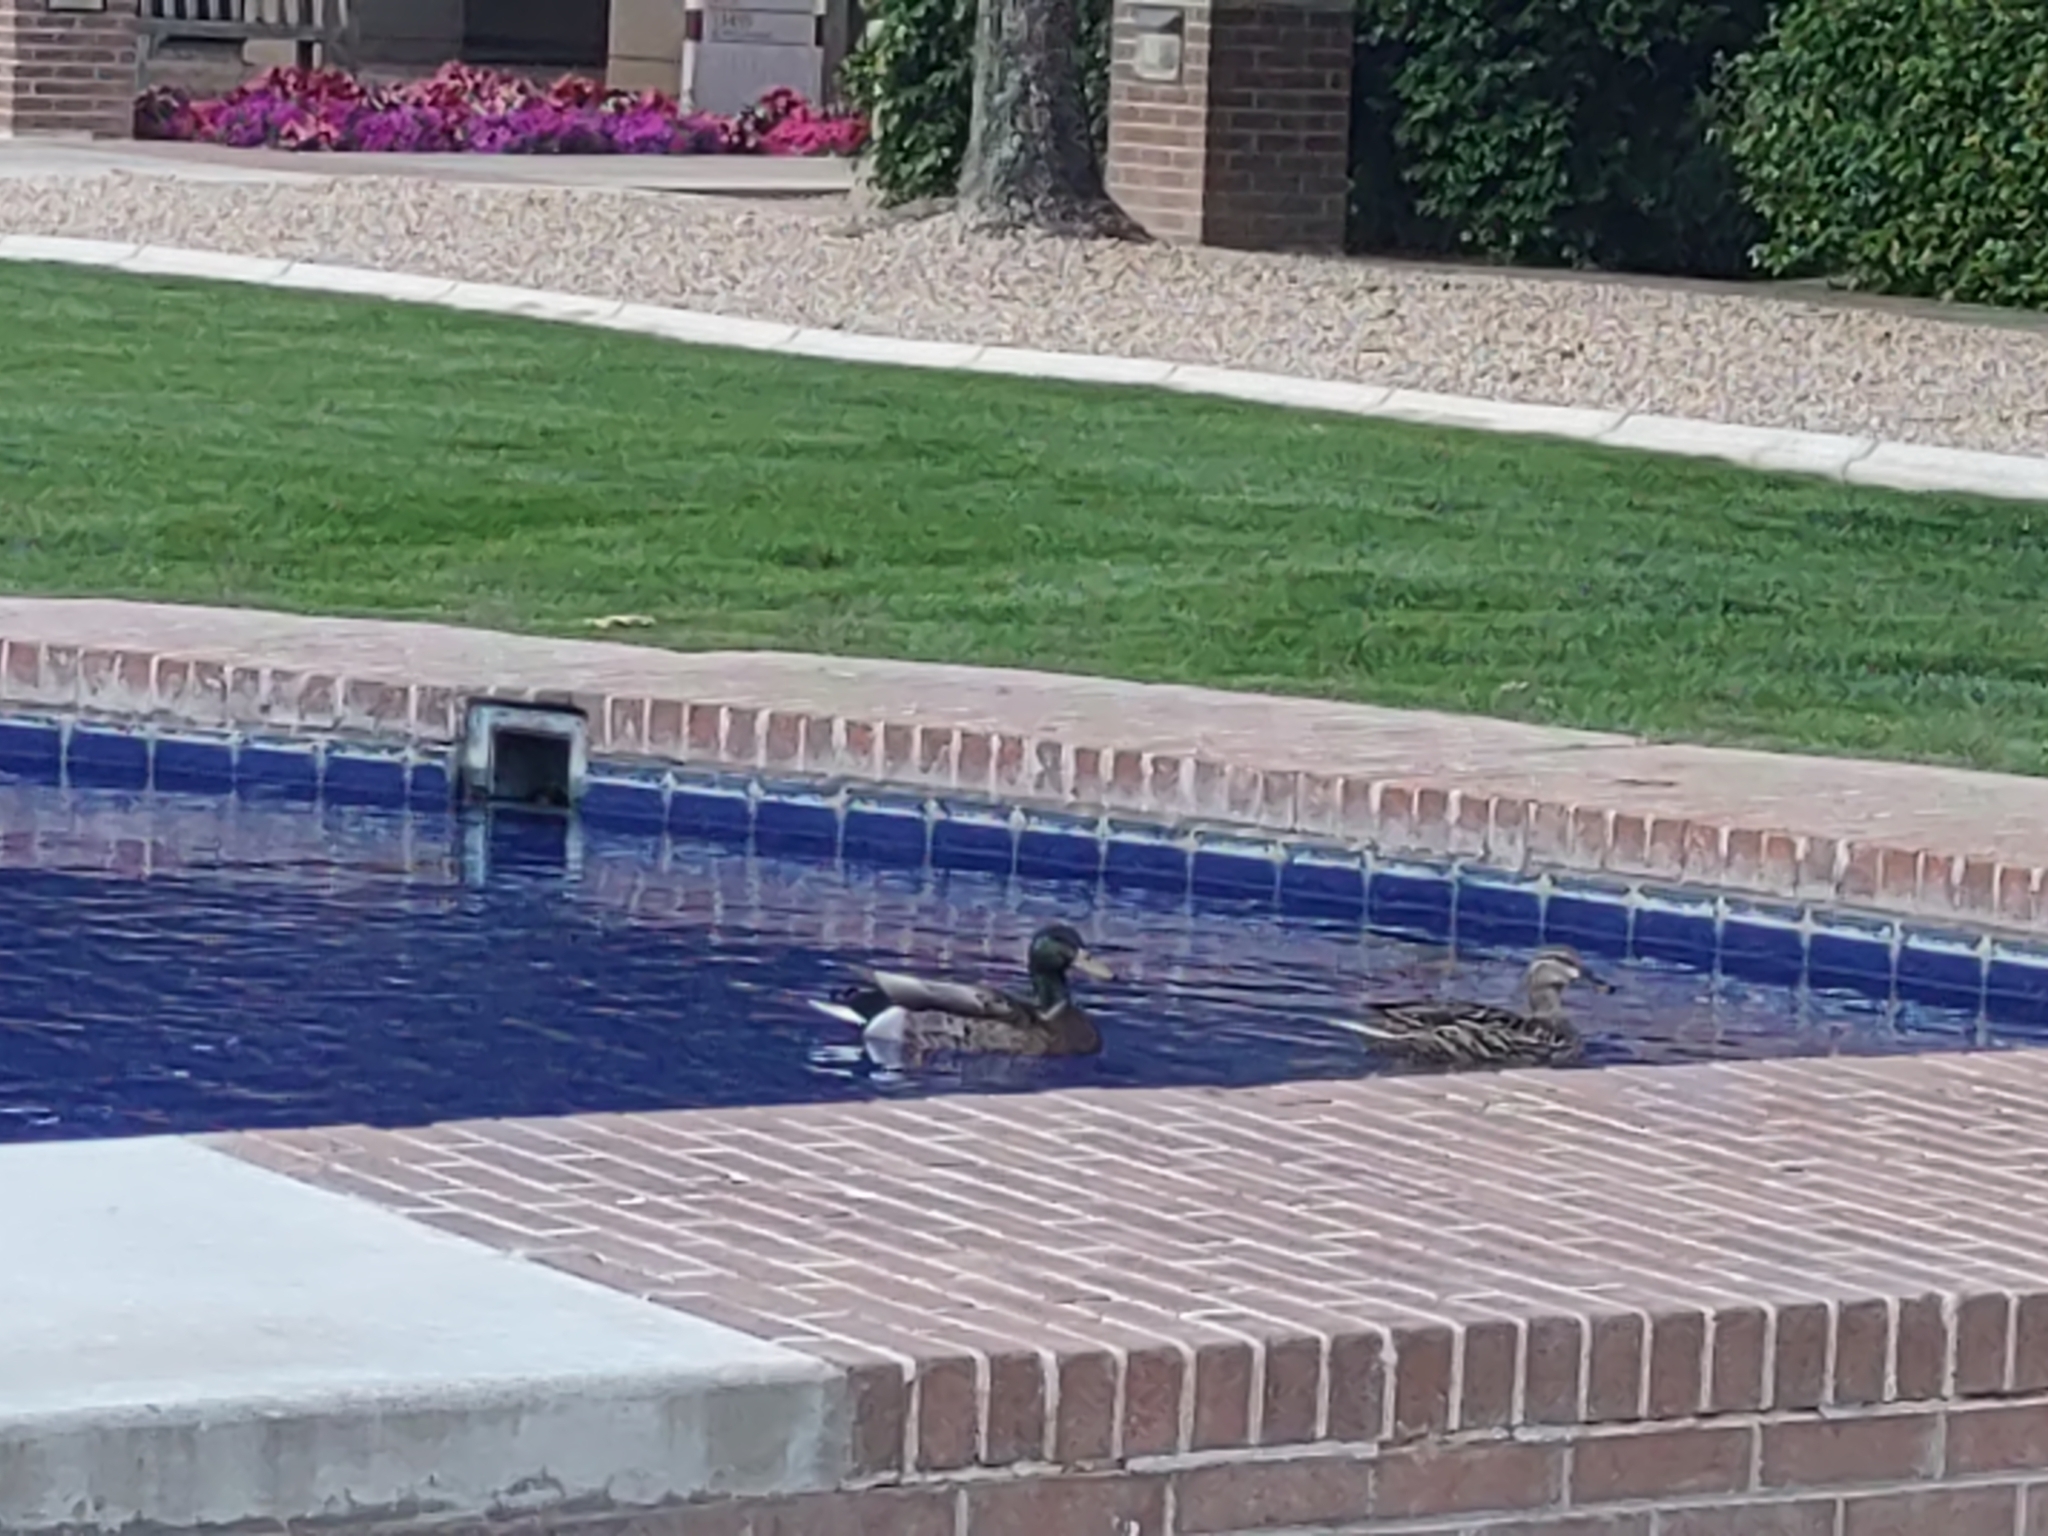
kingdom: Animalia
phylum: Chordata
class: Aves
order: Anseriformes
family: Anatidae
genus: Anas
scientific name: Anas platyrhynchos
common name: Mallard
